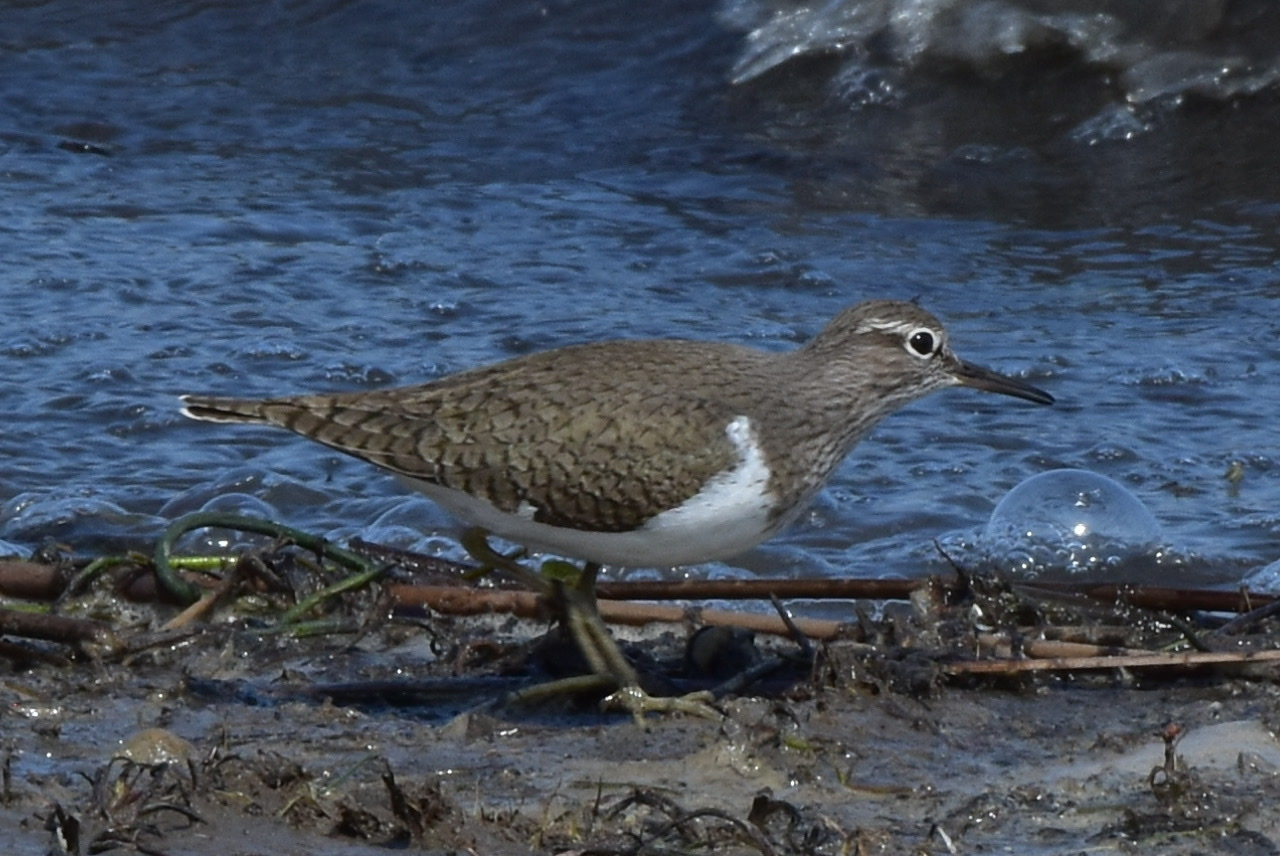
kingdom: Animalia
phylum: Chordata
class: Aves
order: Charadriiformes
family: Scolopacidae
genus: Actitis
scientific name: Actitis hypoleucos
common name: Common sandpiper
